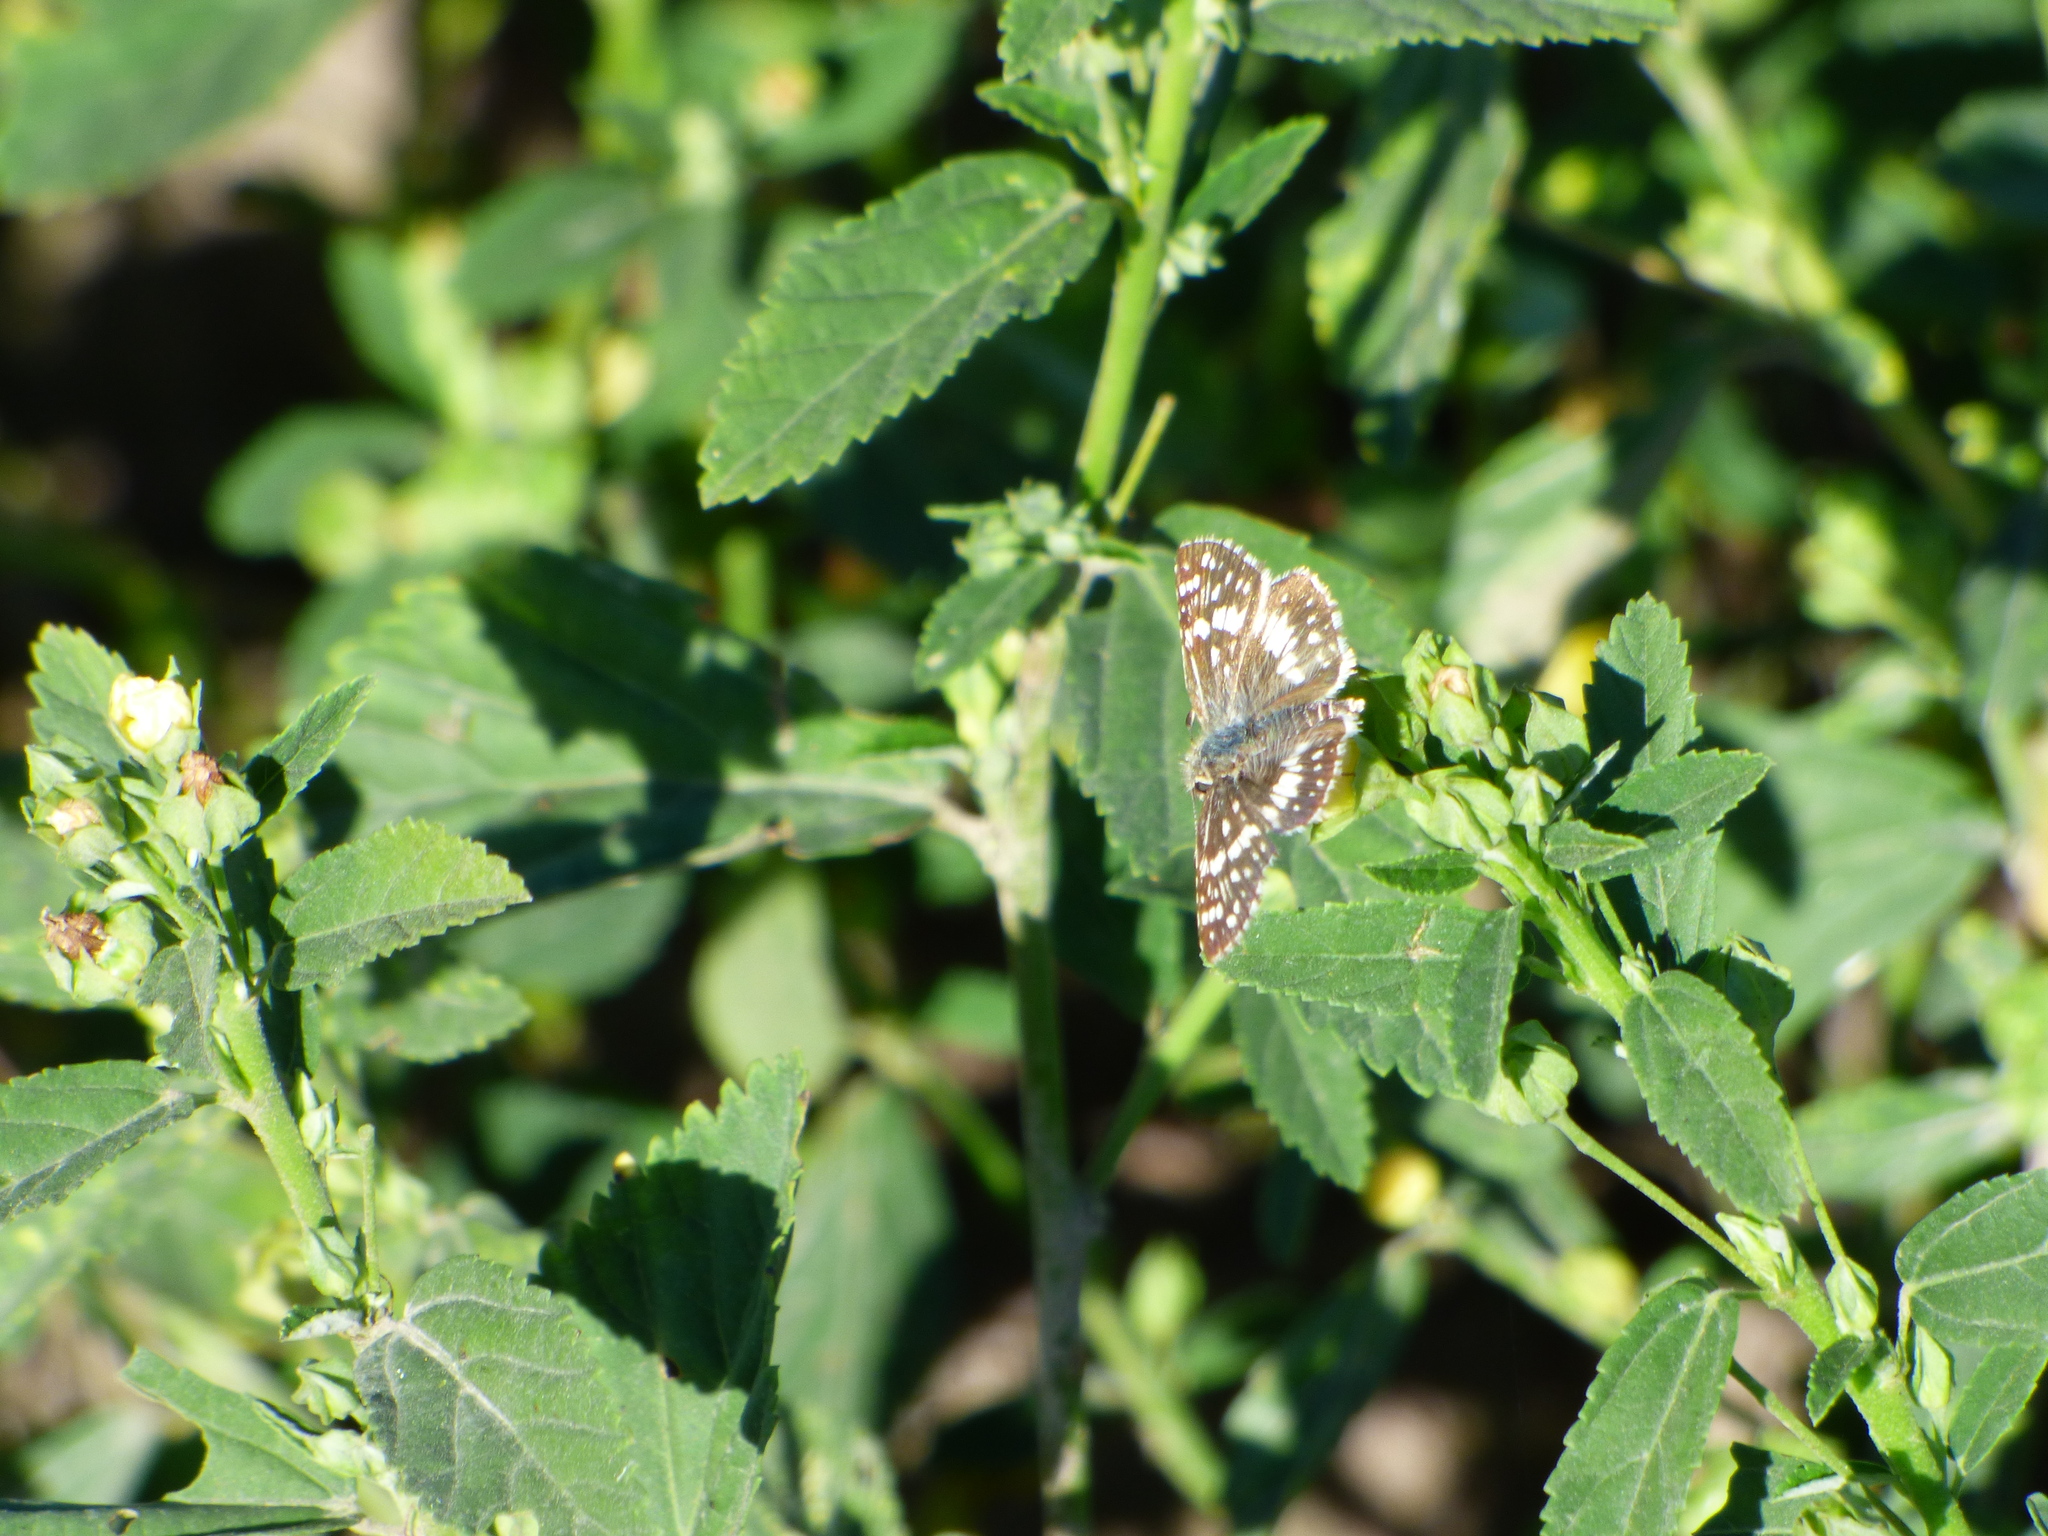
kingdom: Animalia
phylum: Arthropoda
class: Insecta
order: Lepidoptera
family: Hesperiidae
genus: Burnsius
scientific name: Burnsius orcynoides
